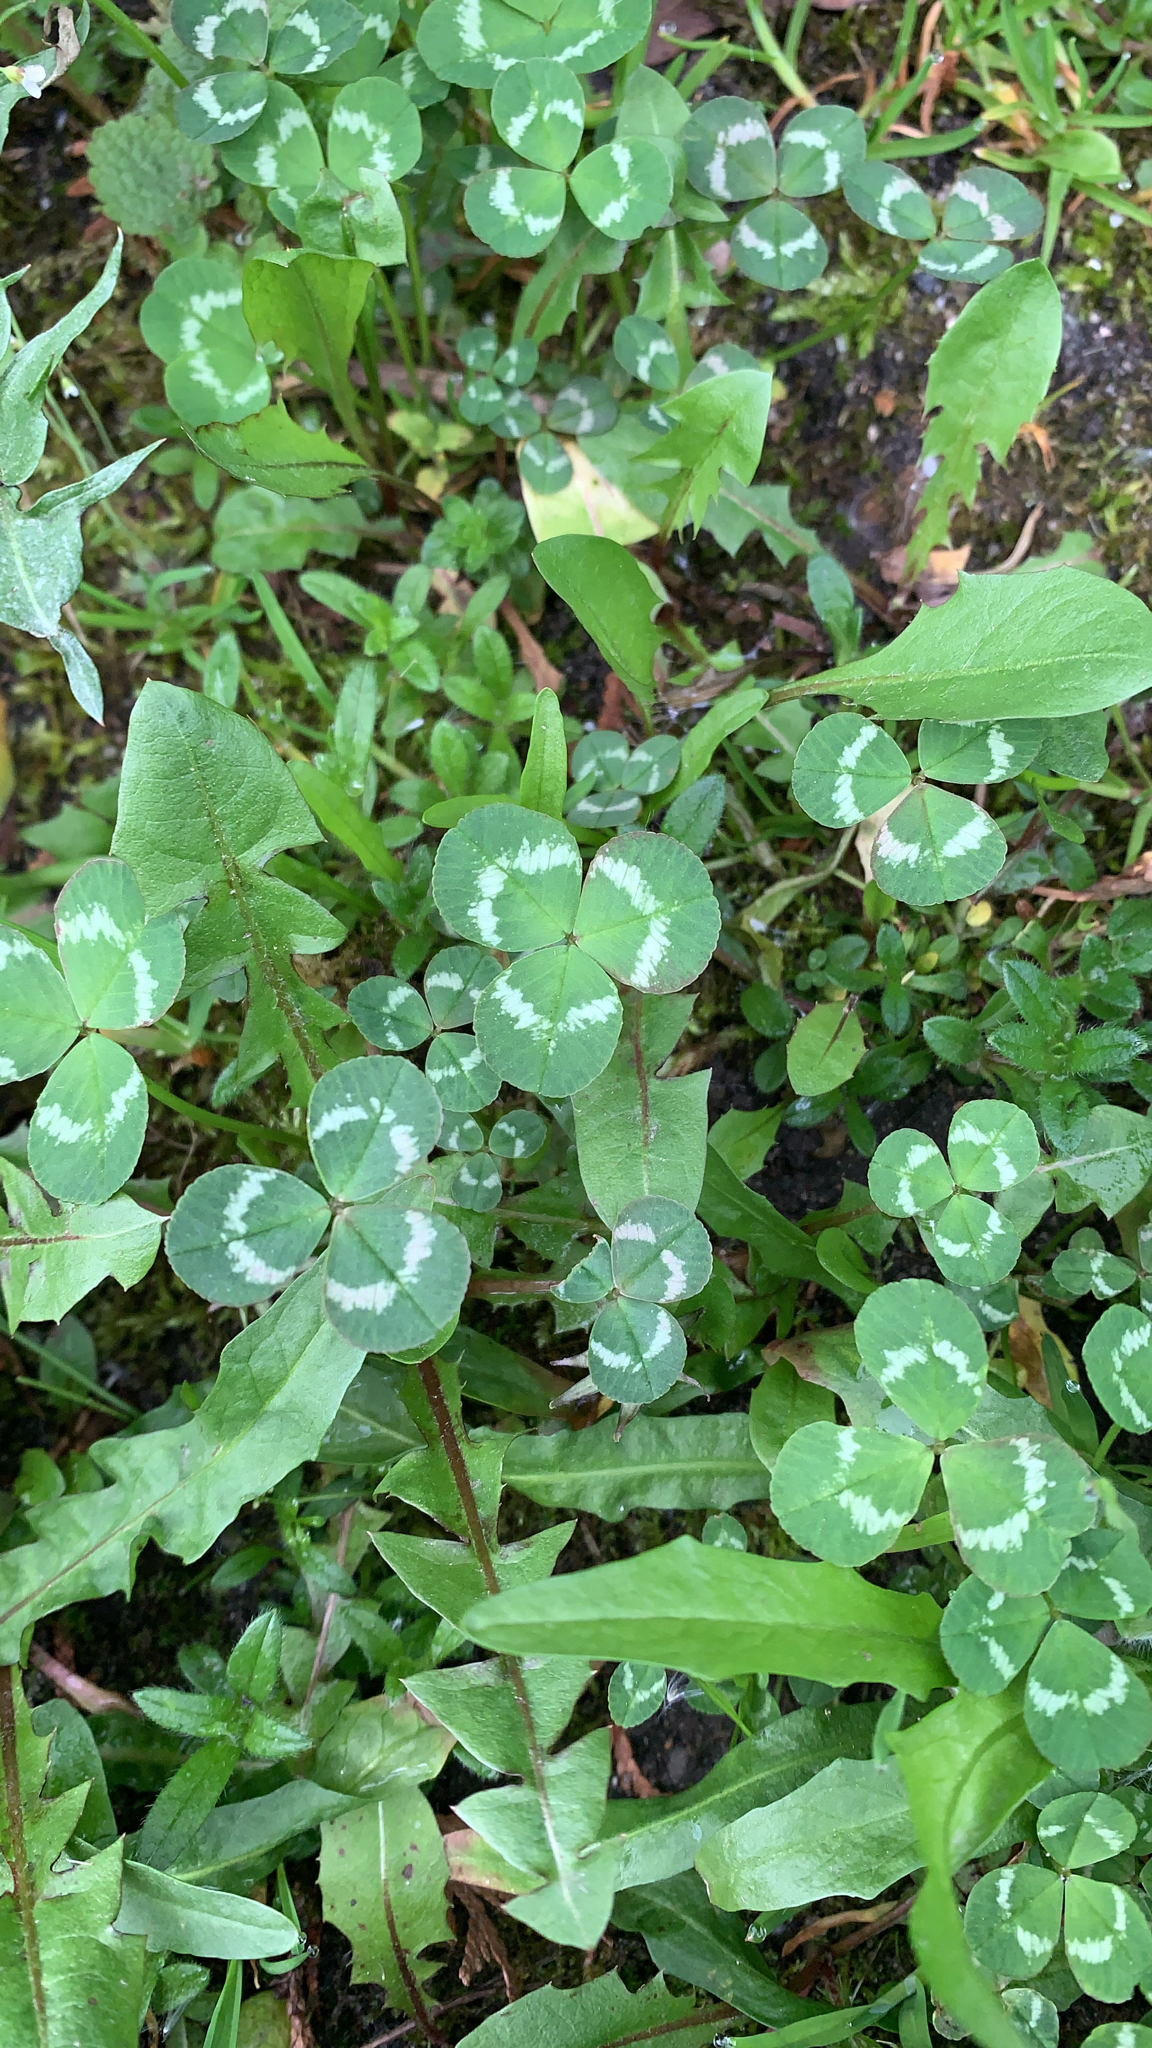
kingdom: Plantae
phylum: Tracheophyta
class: Magnoliopsida
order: Fabales
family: Fabaceae
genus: Trifolium
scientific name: Trifolium repens
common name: White clover
